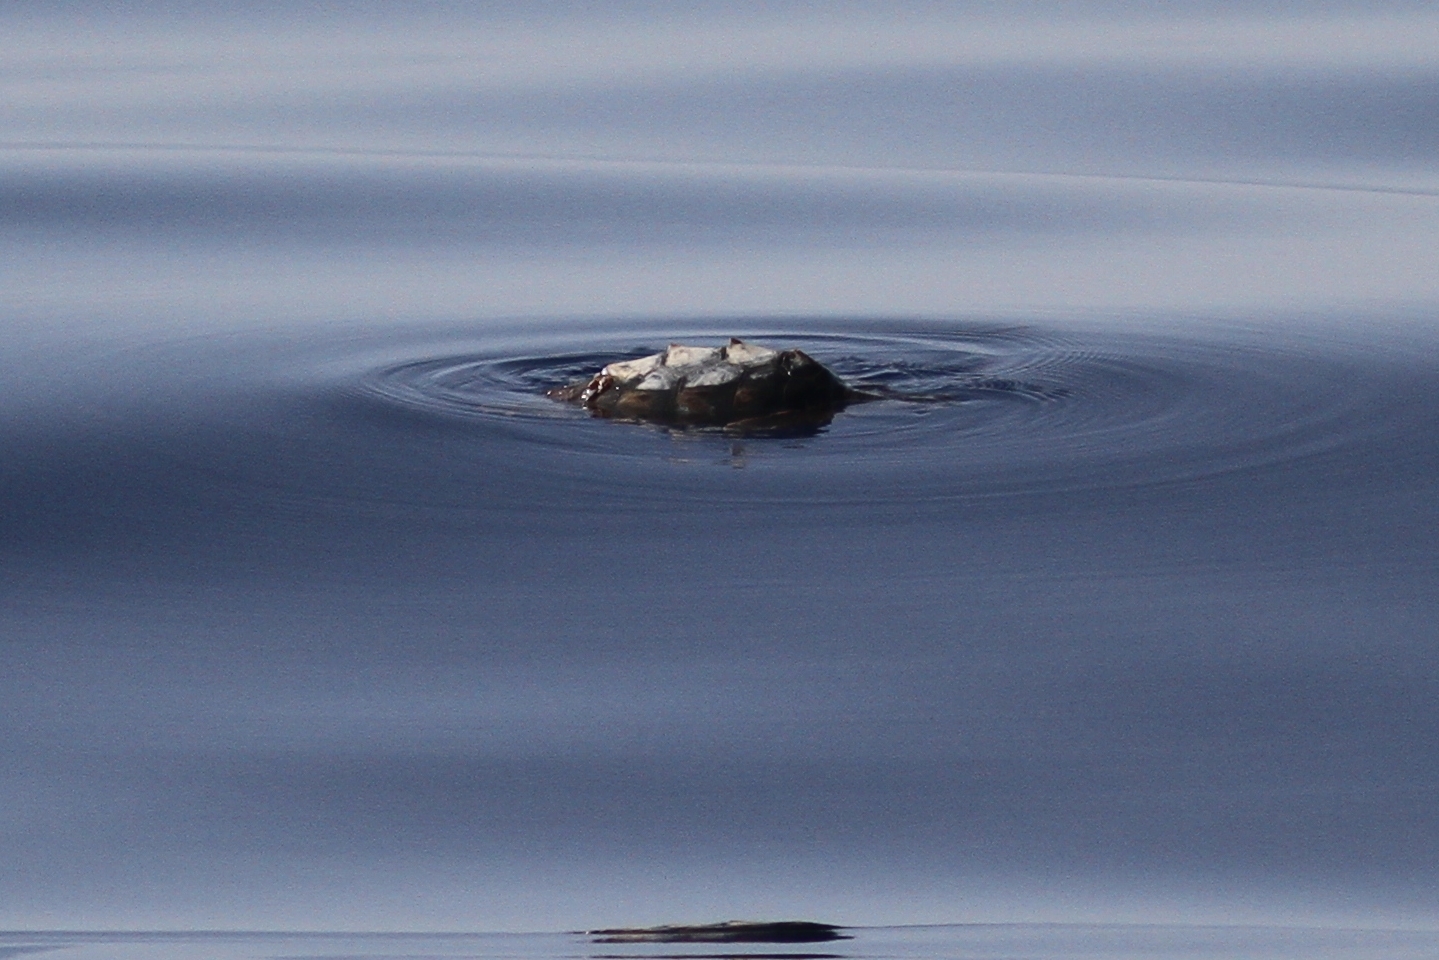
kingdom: Animalia
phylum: Chordata
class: Testudines
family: Cheloniidae
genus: Caretta
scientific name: Caretta caretta
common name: Loggerhead sea turtle
